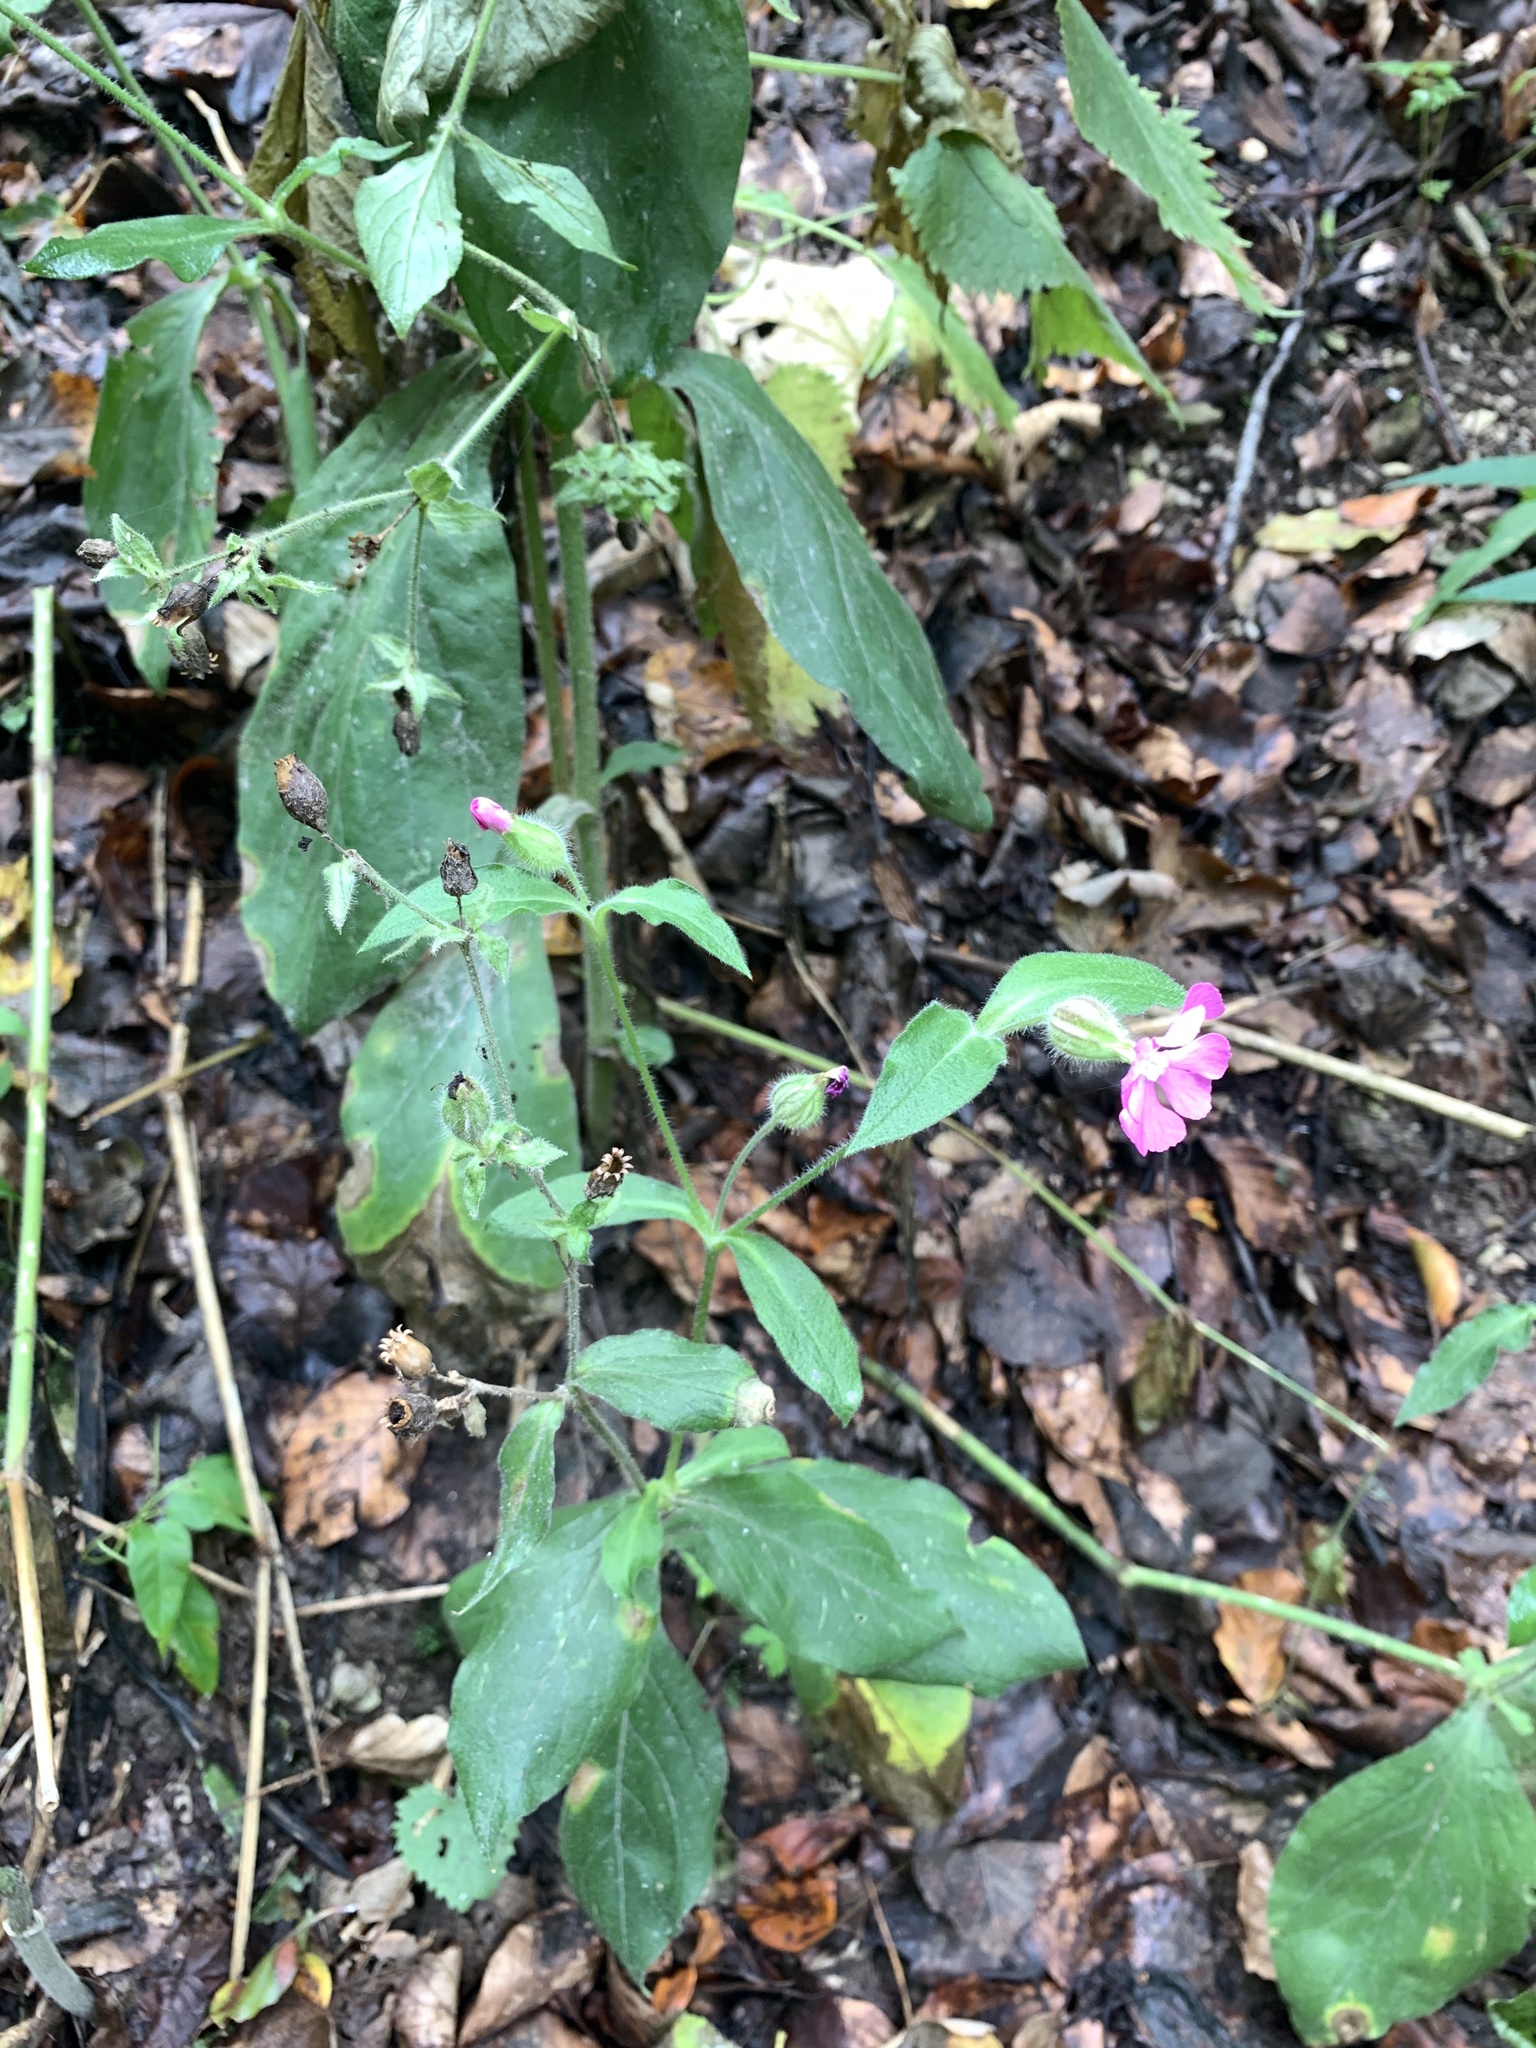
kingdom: Plantae
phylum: Tracheophyta
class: Magnoliopsida
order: Caryophyllales
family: Caryophyllaceae
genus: Silene
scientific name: Silene dioica
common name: Red campion
